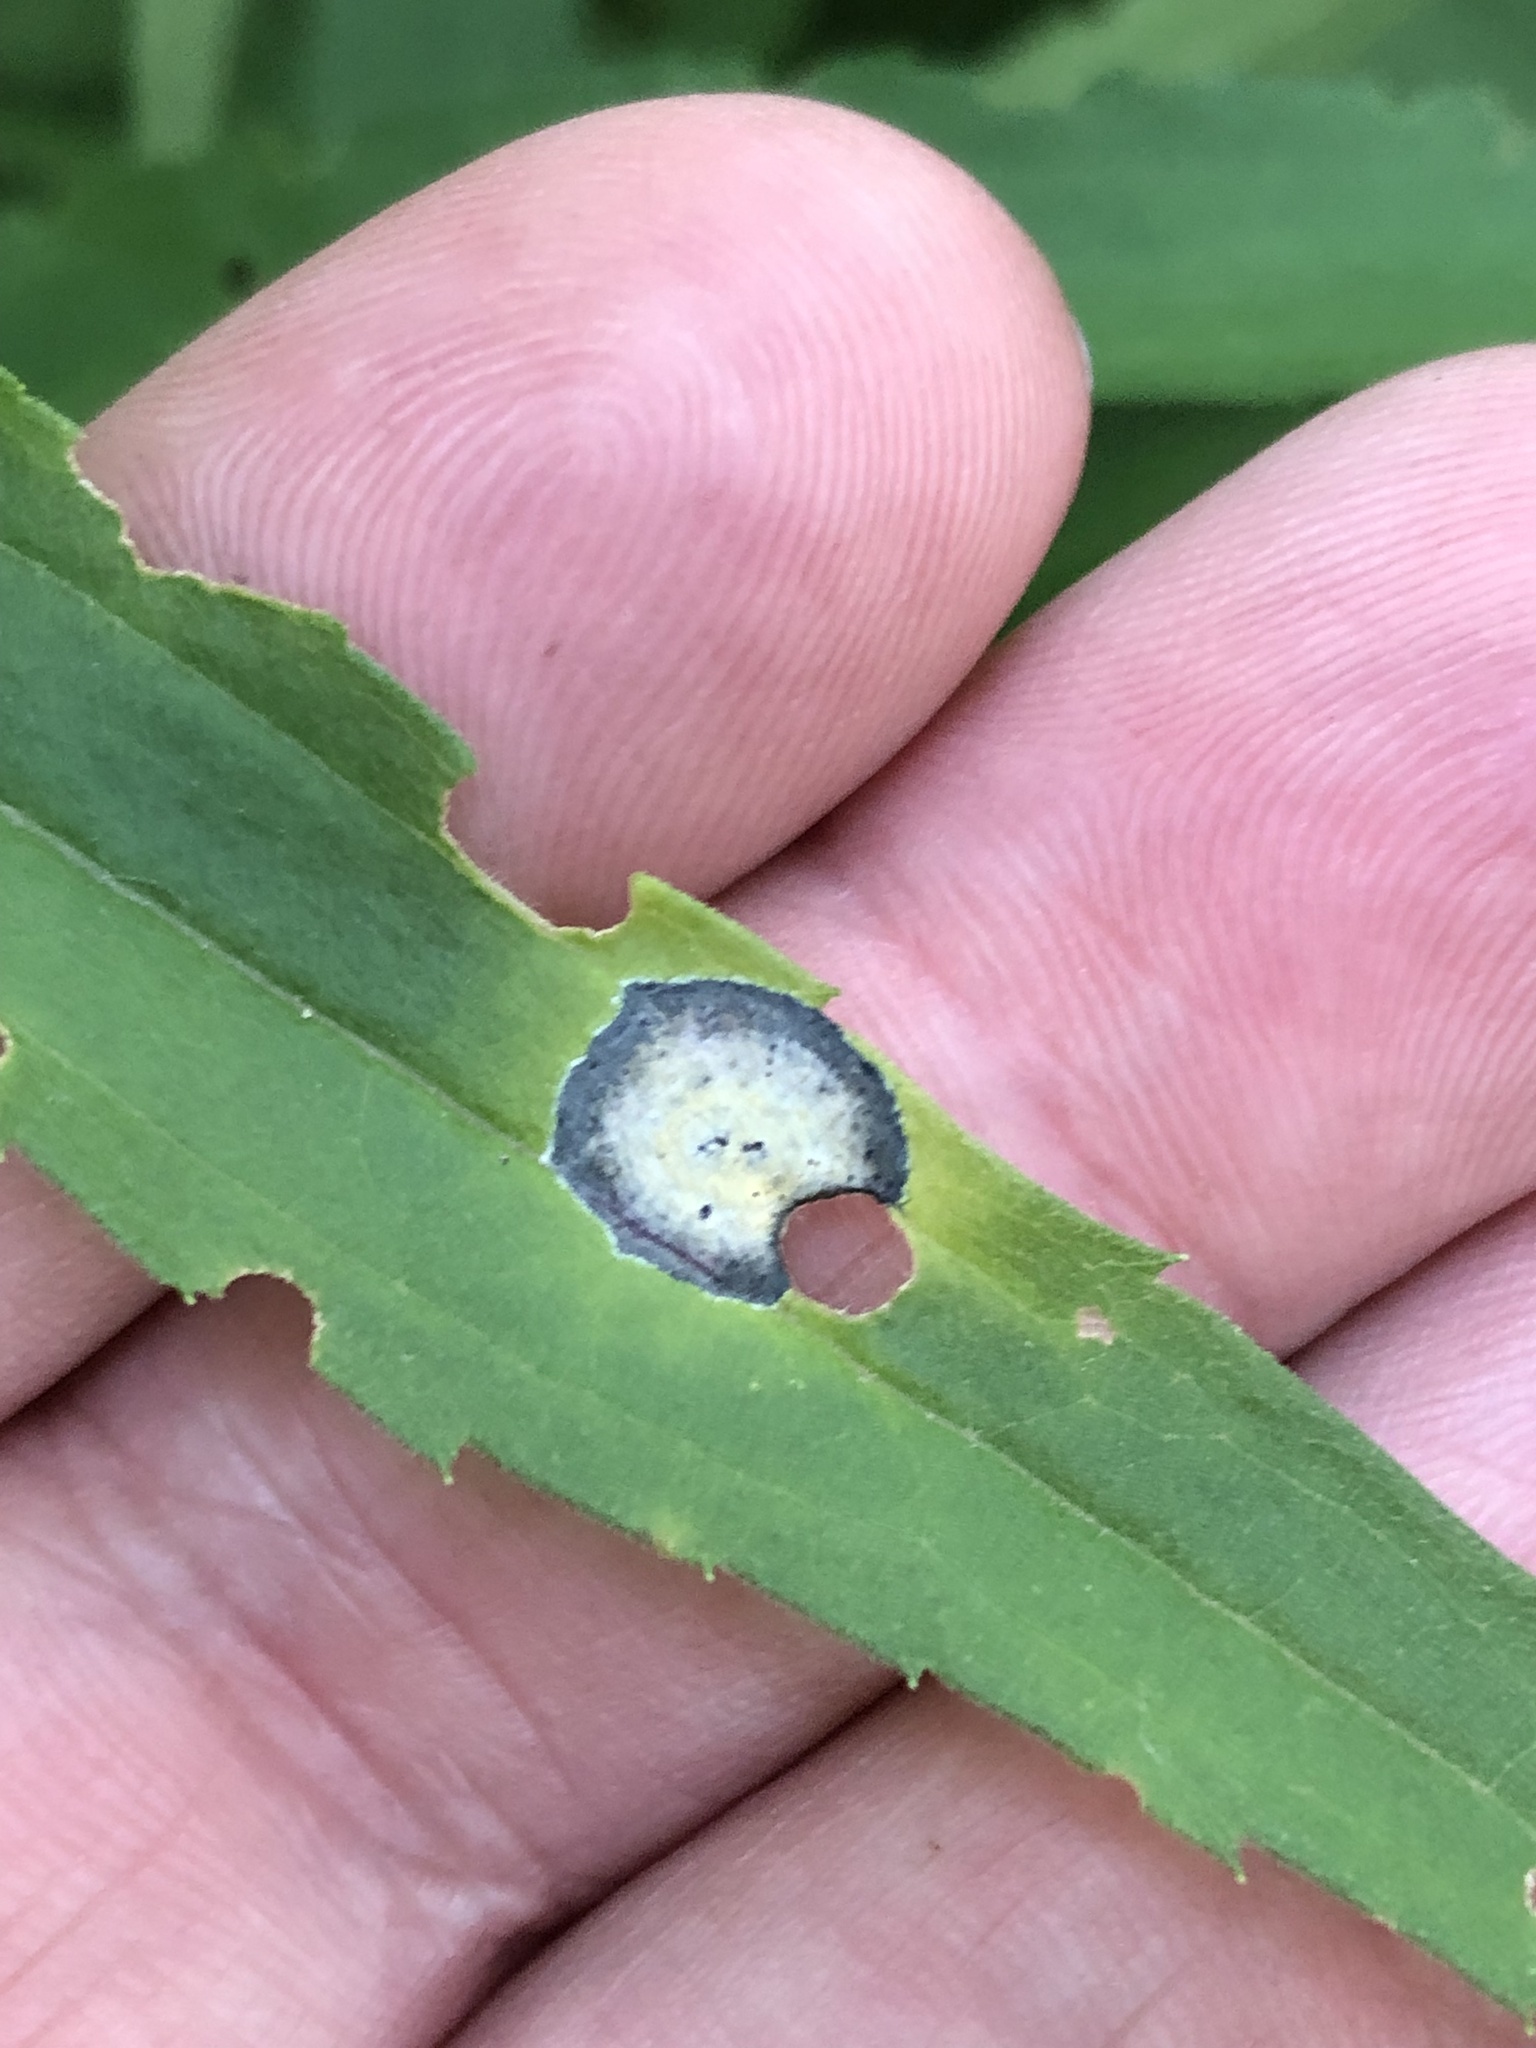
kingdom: Animalia
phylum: Arthropoda
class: Insecta
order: Diptera
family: Cecidomyiidae
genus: Asteromyia
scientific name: Asteromyia carbonifera
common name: Carbonifera goldenrod gall midge
